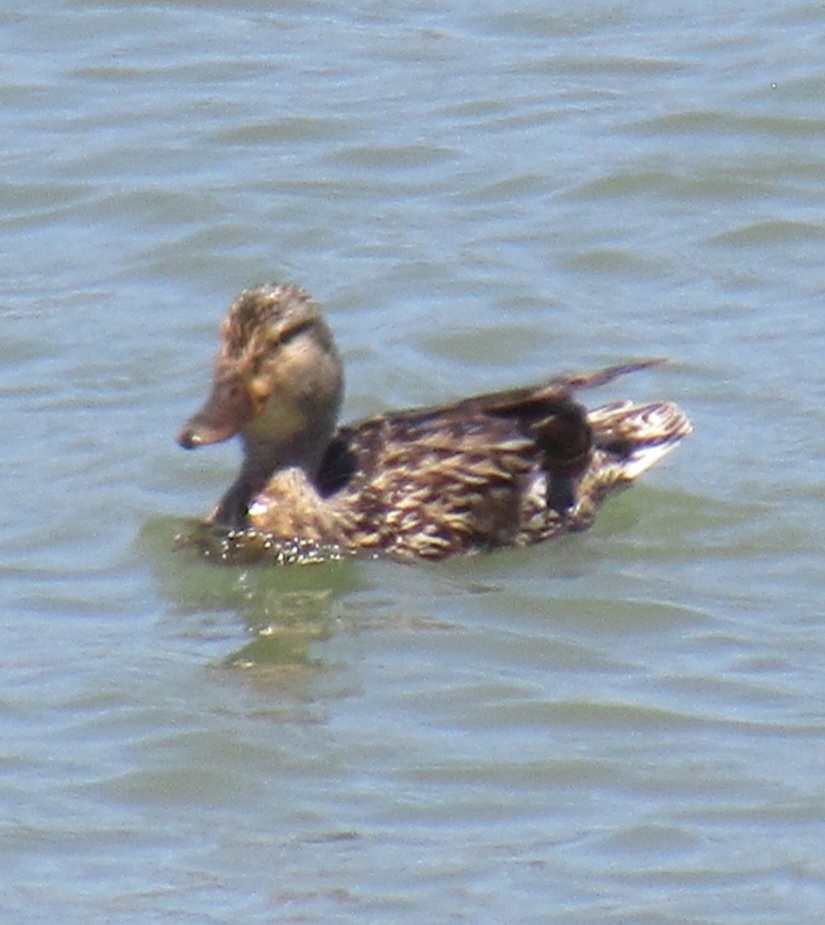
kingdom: Animalia
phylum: Chordata
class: Aves
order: Anseriformes
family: Anatidae
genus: Anas
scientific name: Anas platyrhynchos
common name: Mallard
